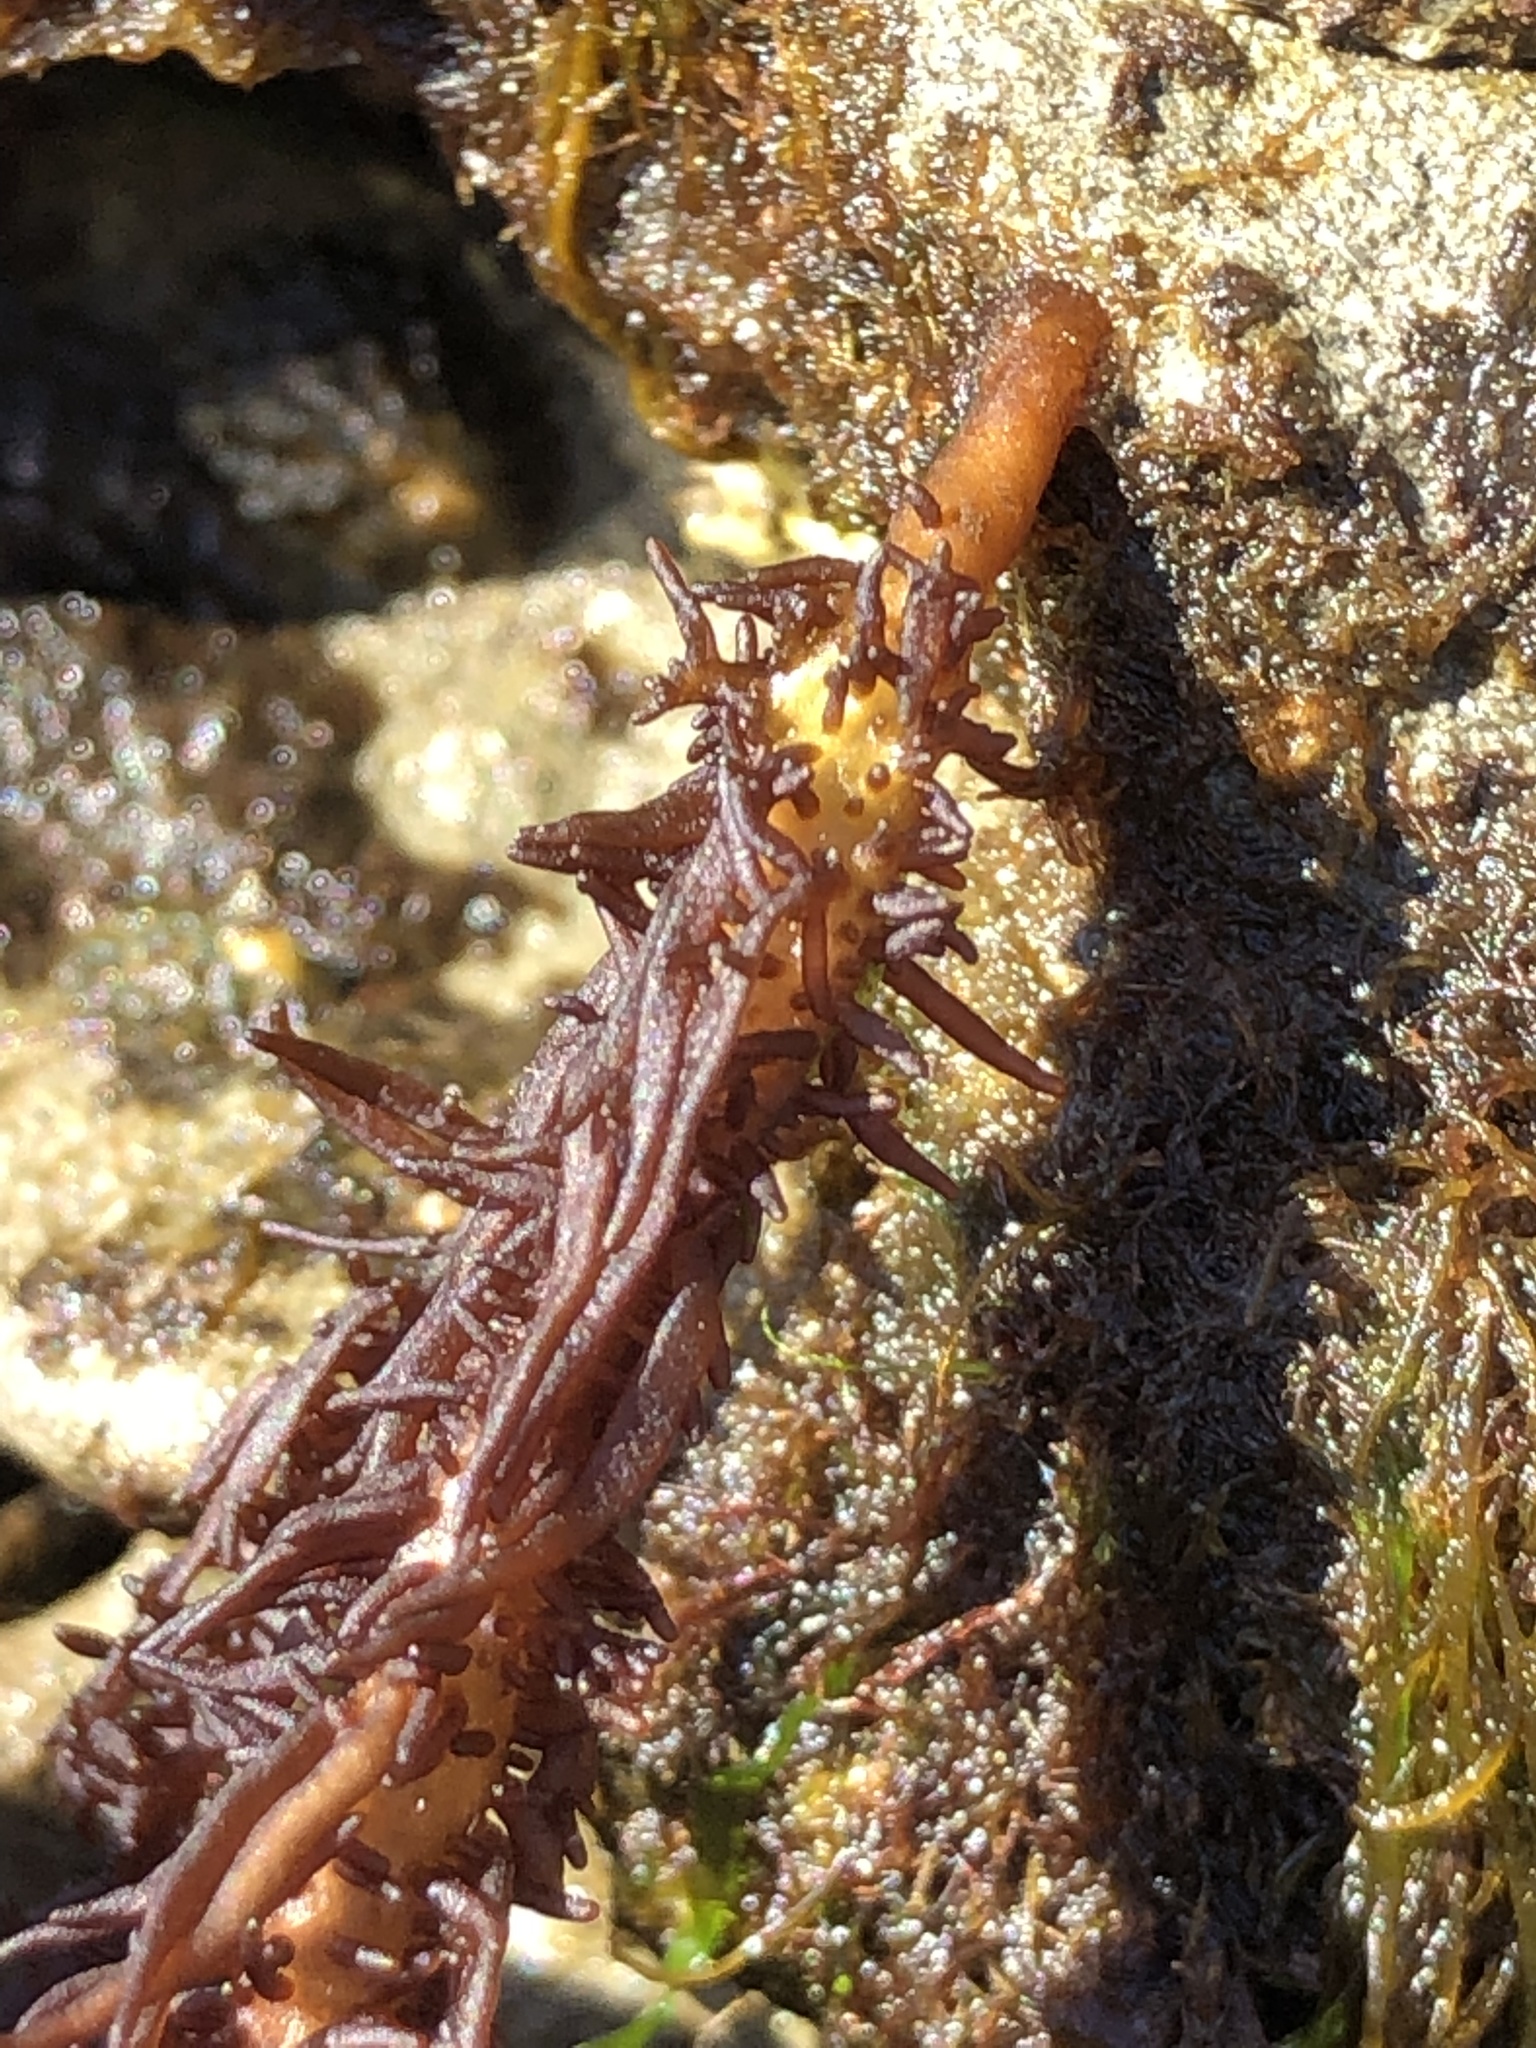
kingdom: Plantae
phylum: Rhodophyta
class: Florideophyceae
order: Nemaliales
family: Liagoraceae
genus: Cumagloia
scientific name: Cumagloia andersonii
